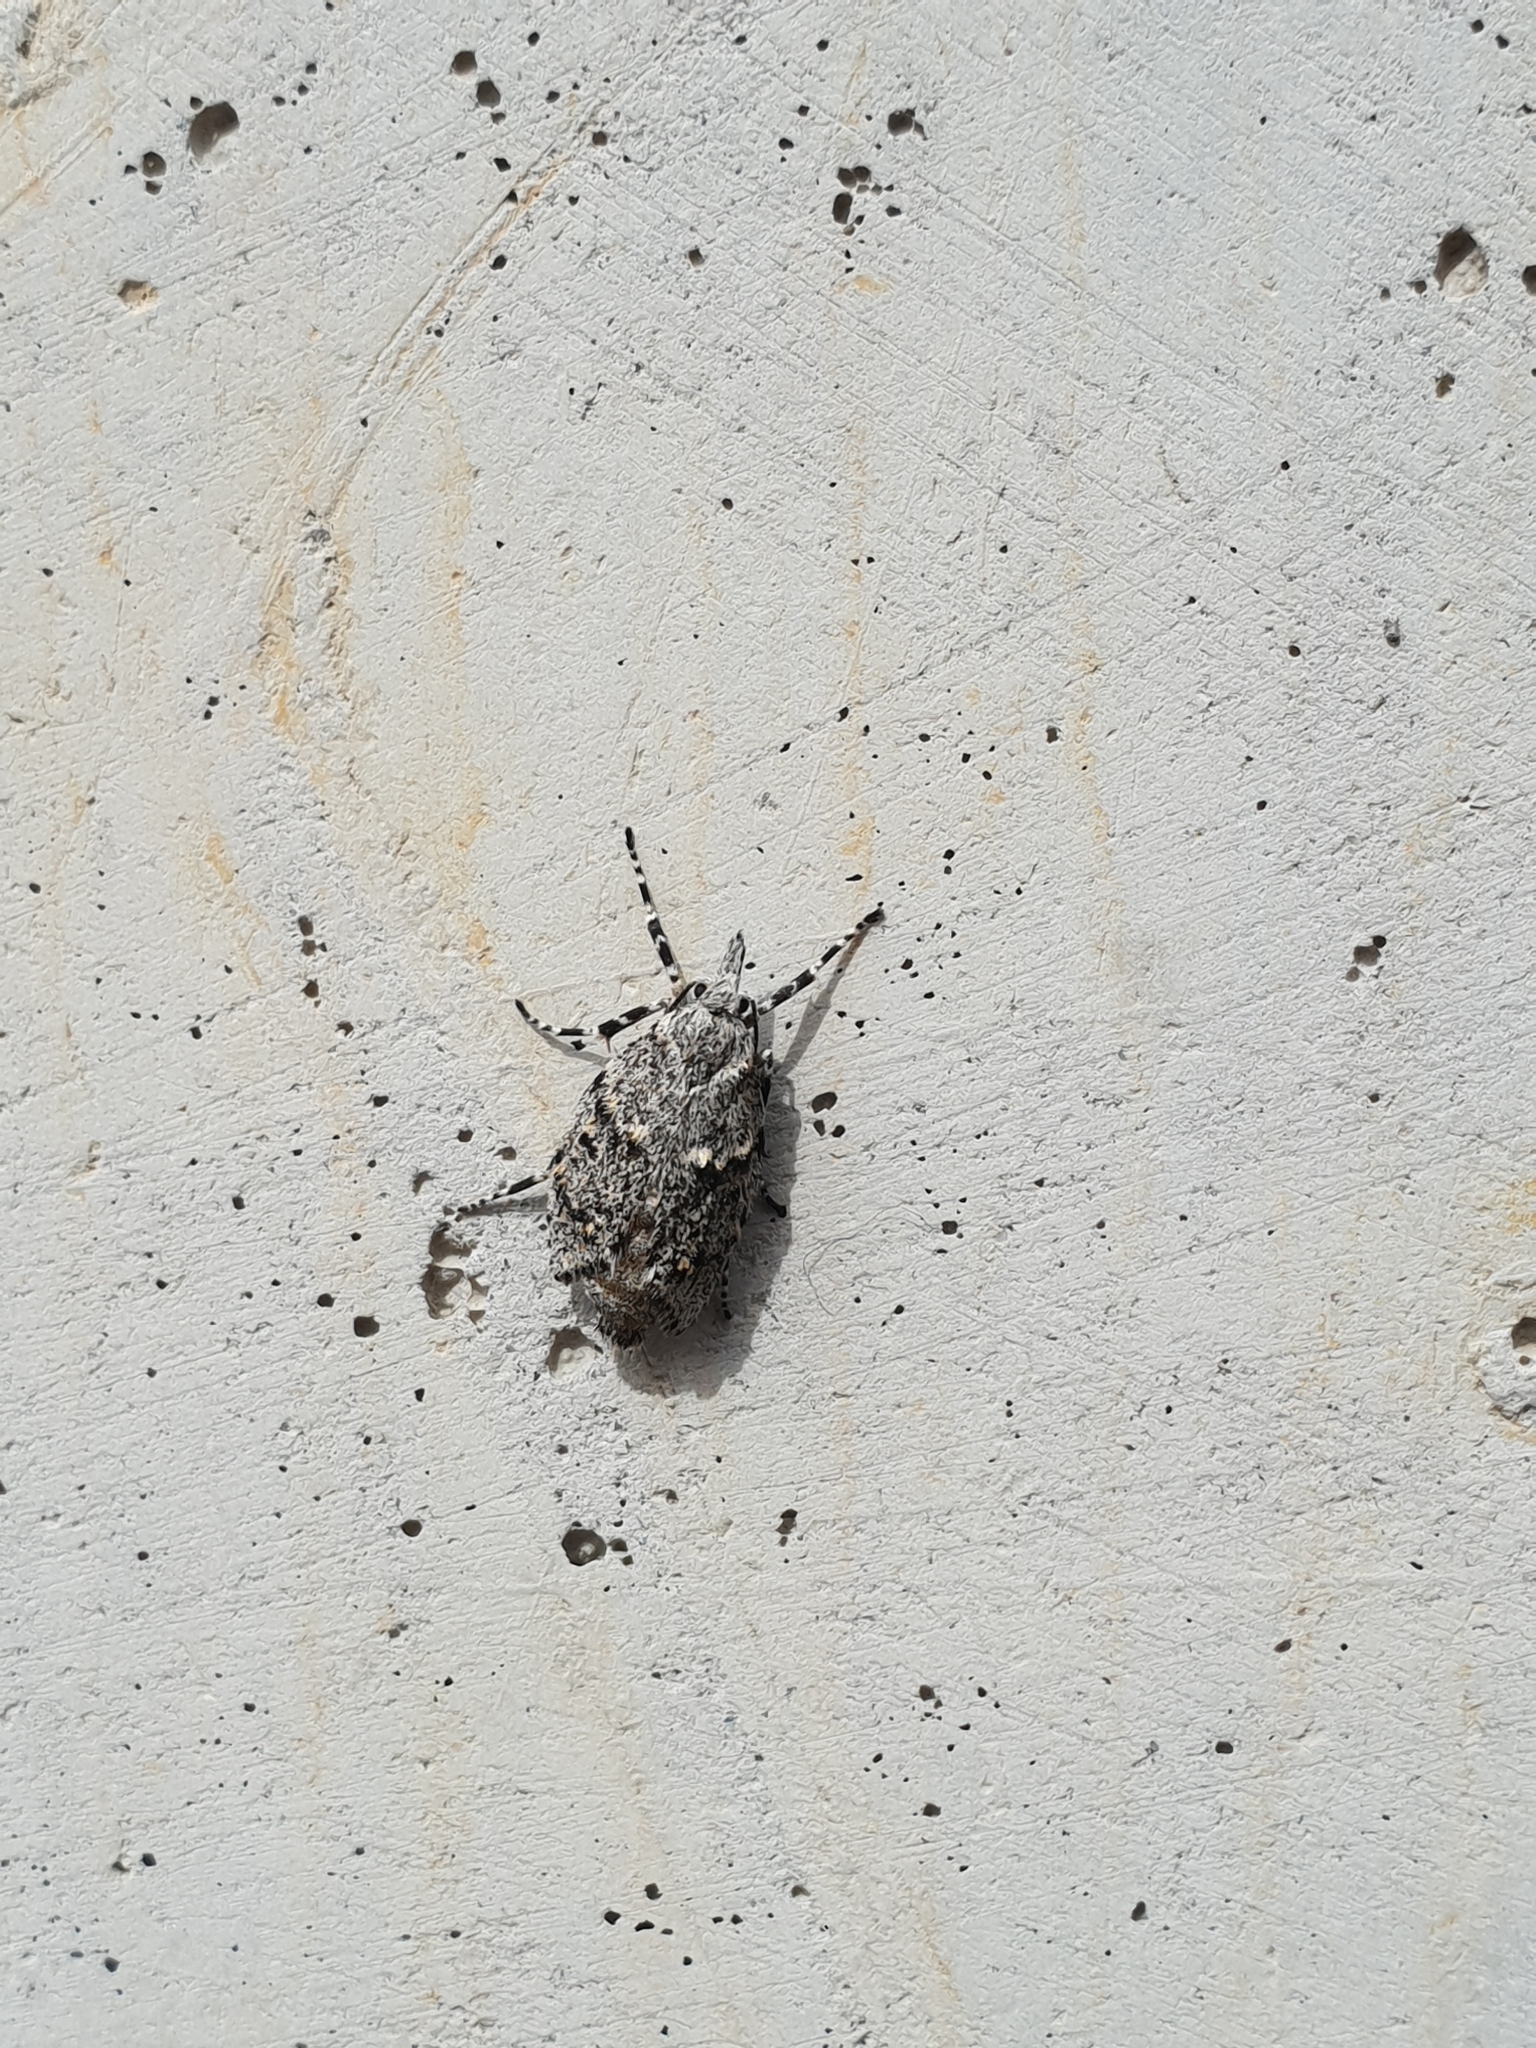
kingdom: Animalia
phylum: Arthropoda
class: Insecta
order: Lepidoptera
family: Lypusidae
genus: Diurnea
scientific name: Diurnea fagella
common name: March tubic
